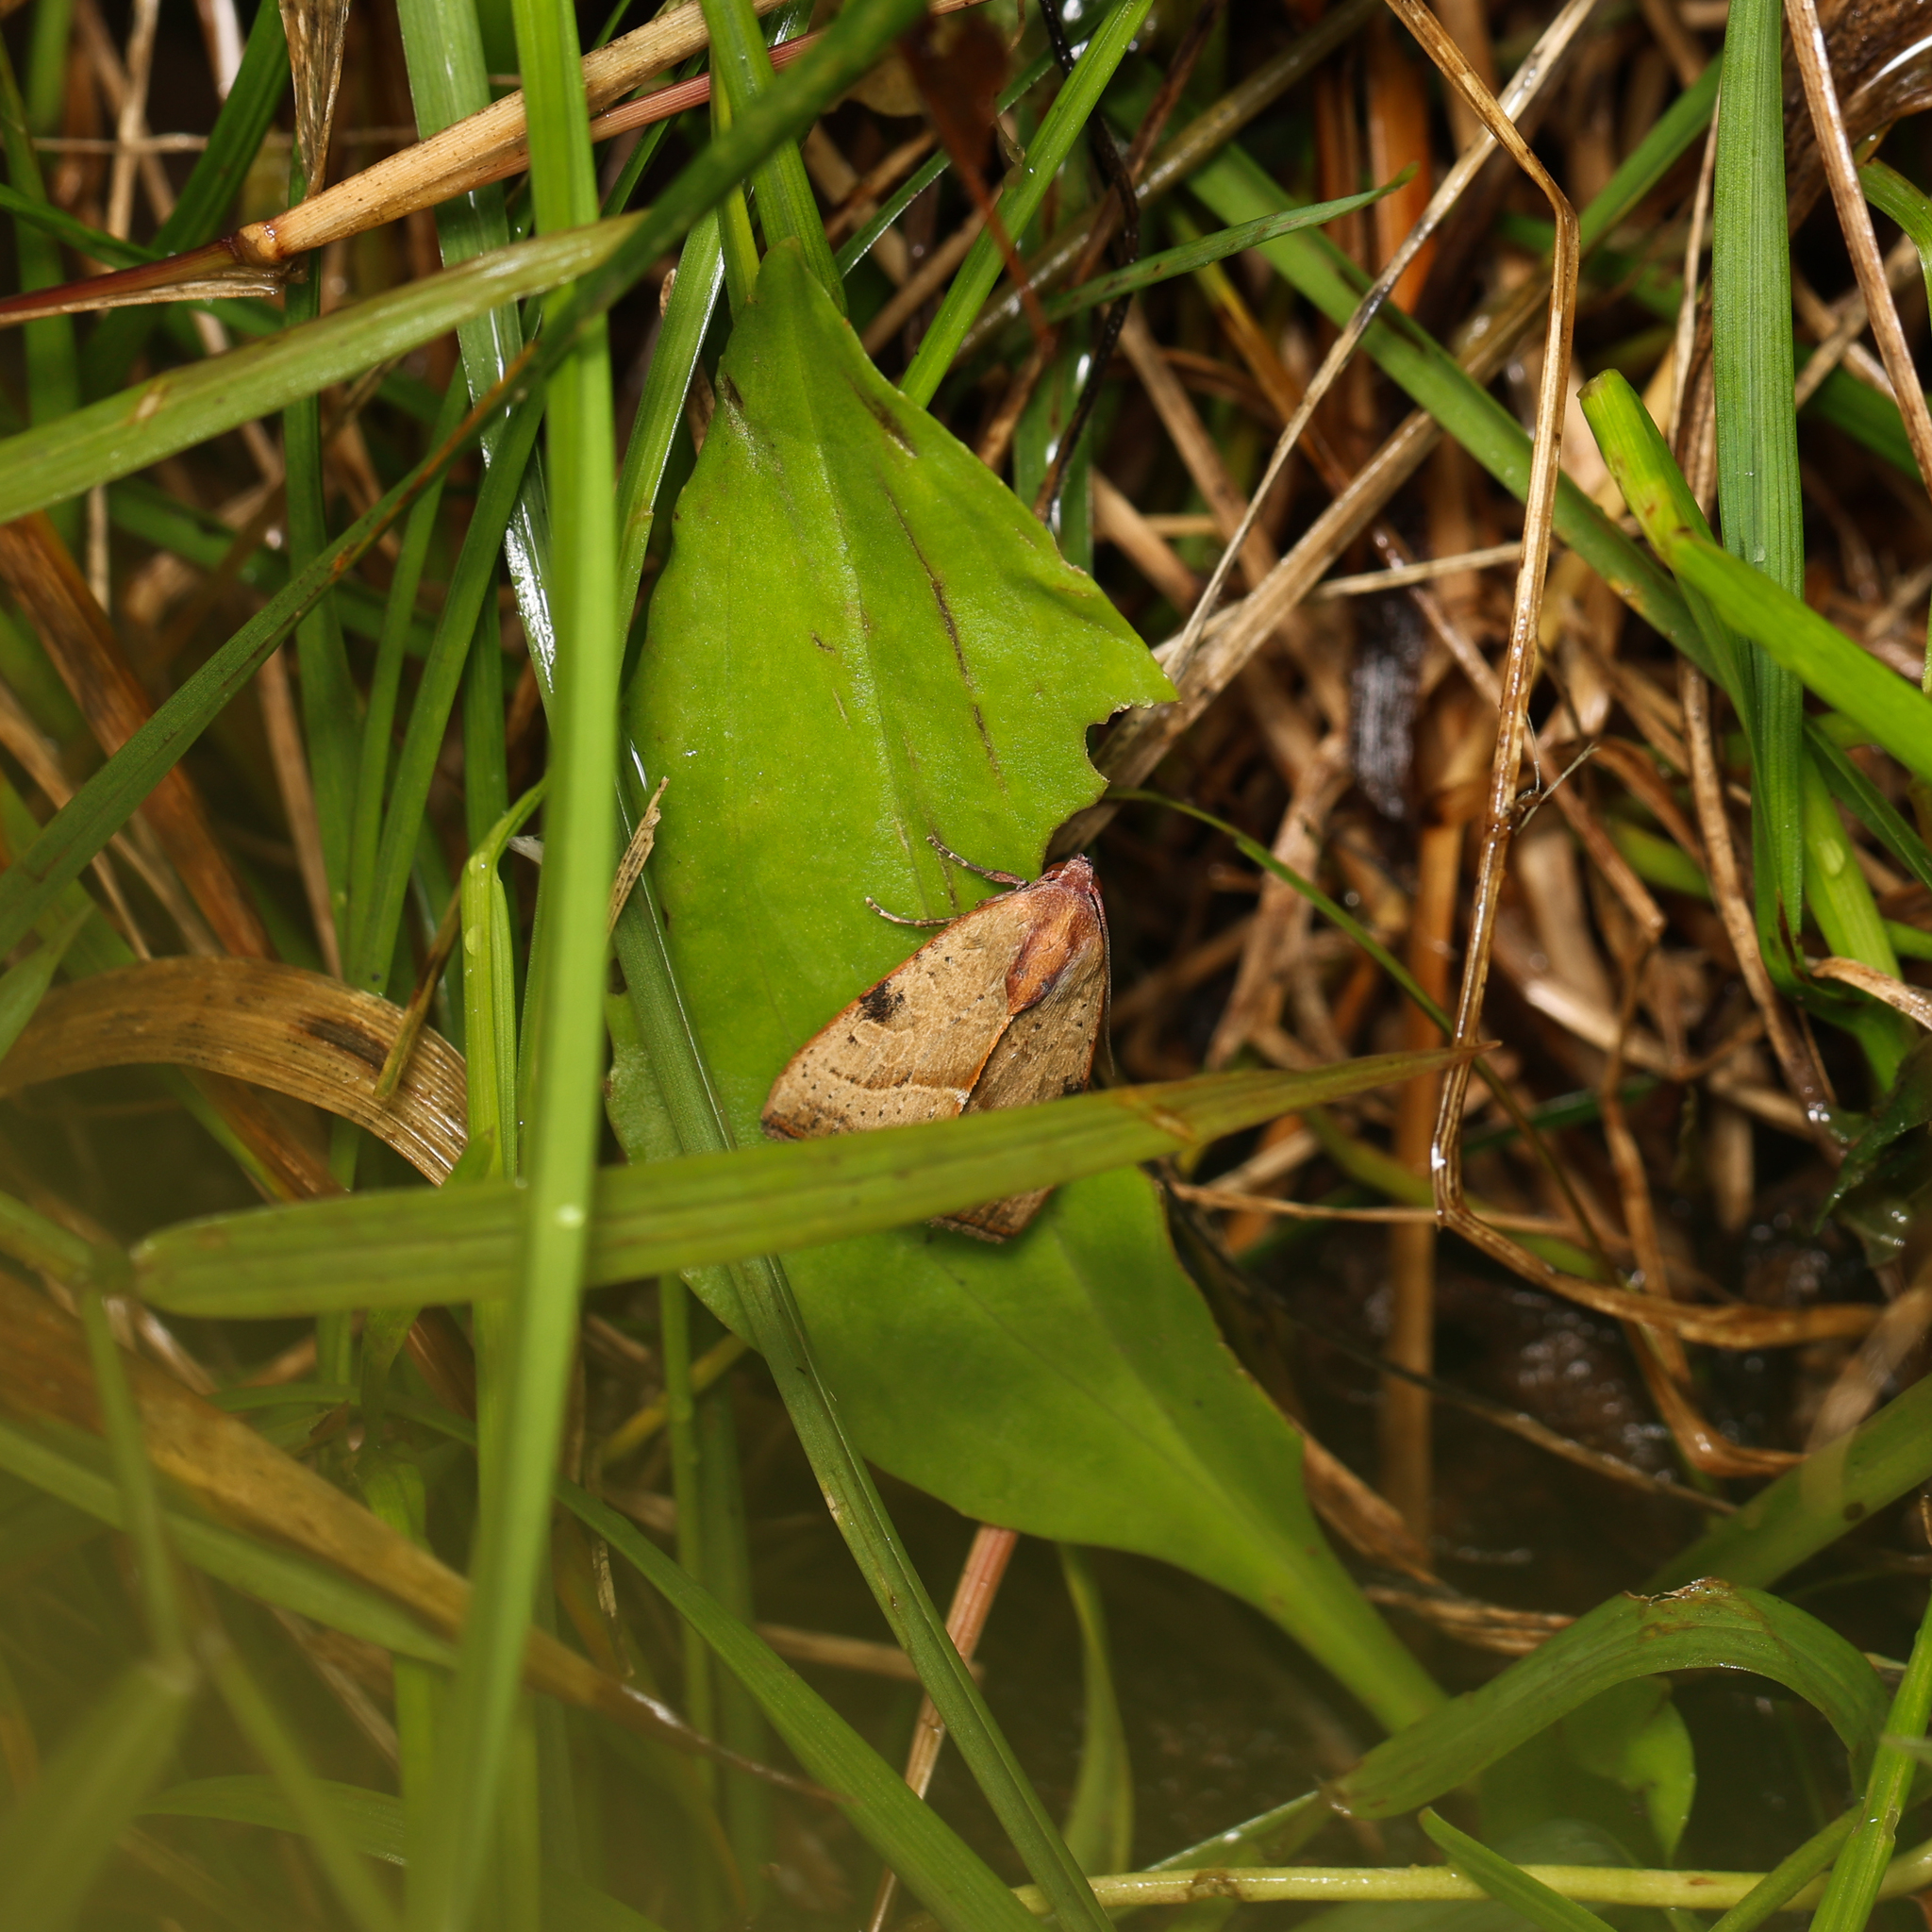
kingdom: Animalia
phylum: Arthropoda
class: Insecta
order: Lepidoptera
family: Noctuidae
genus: Galgula
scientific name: Galgula partita
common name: Wedgeling
